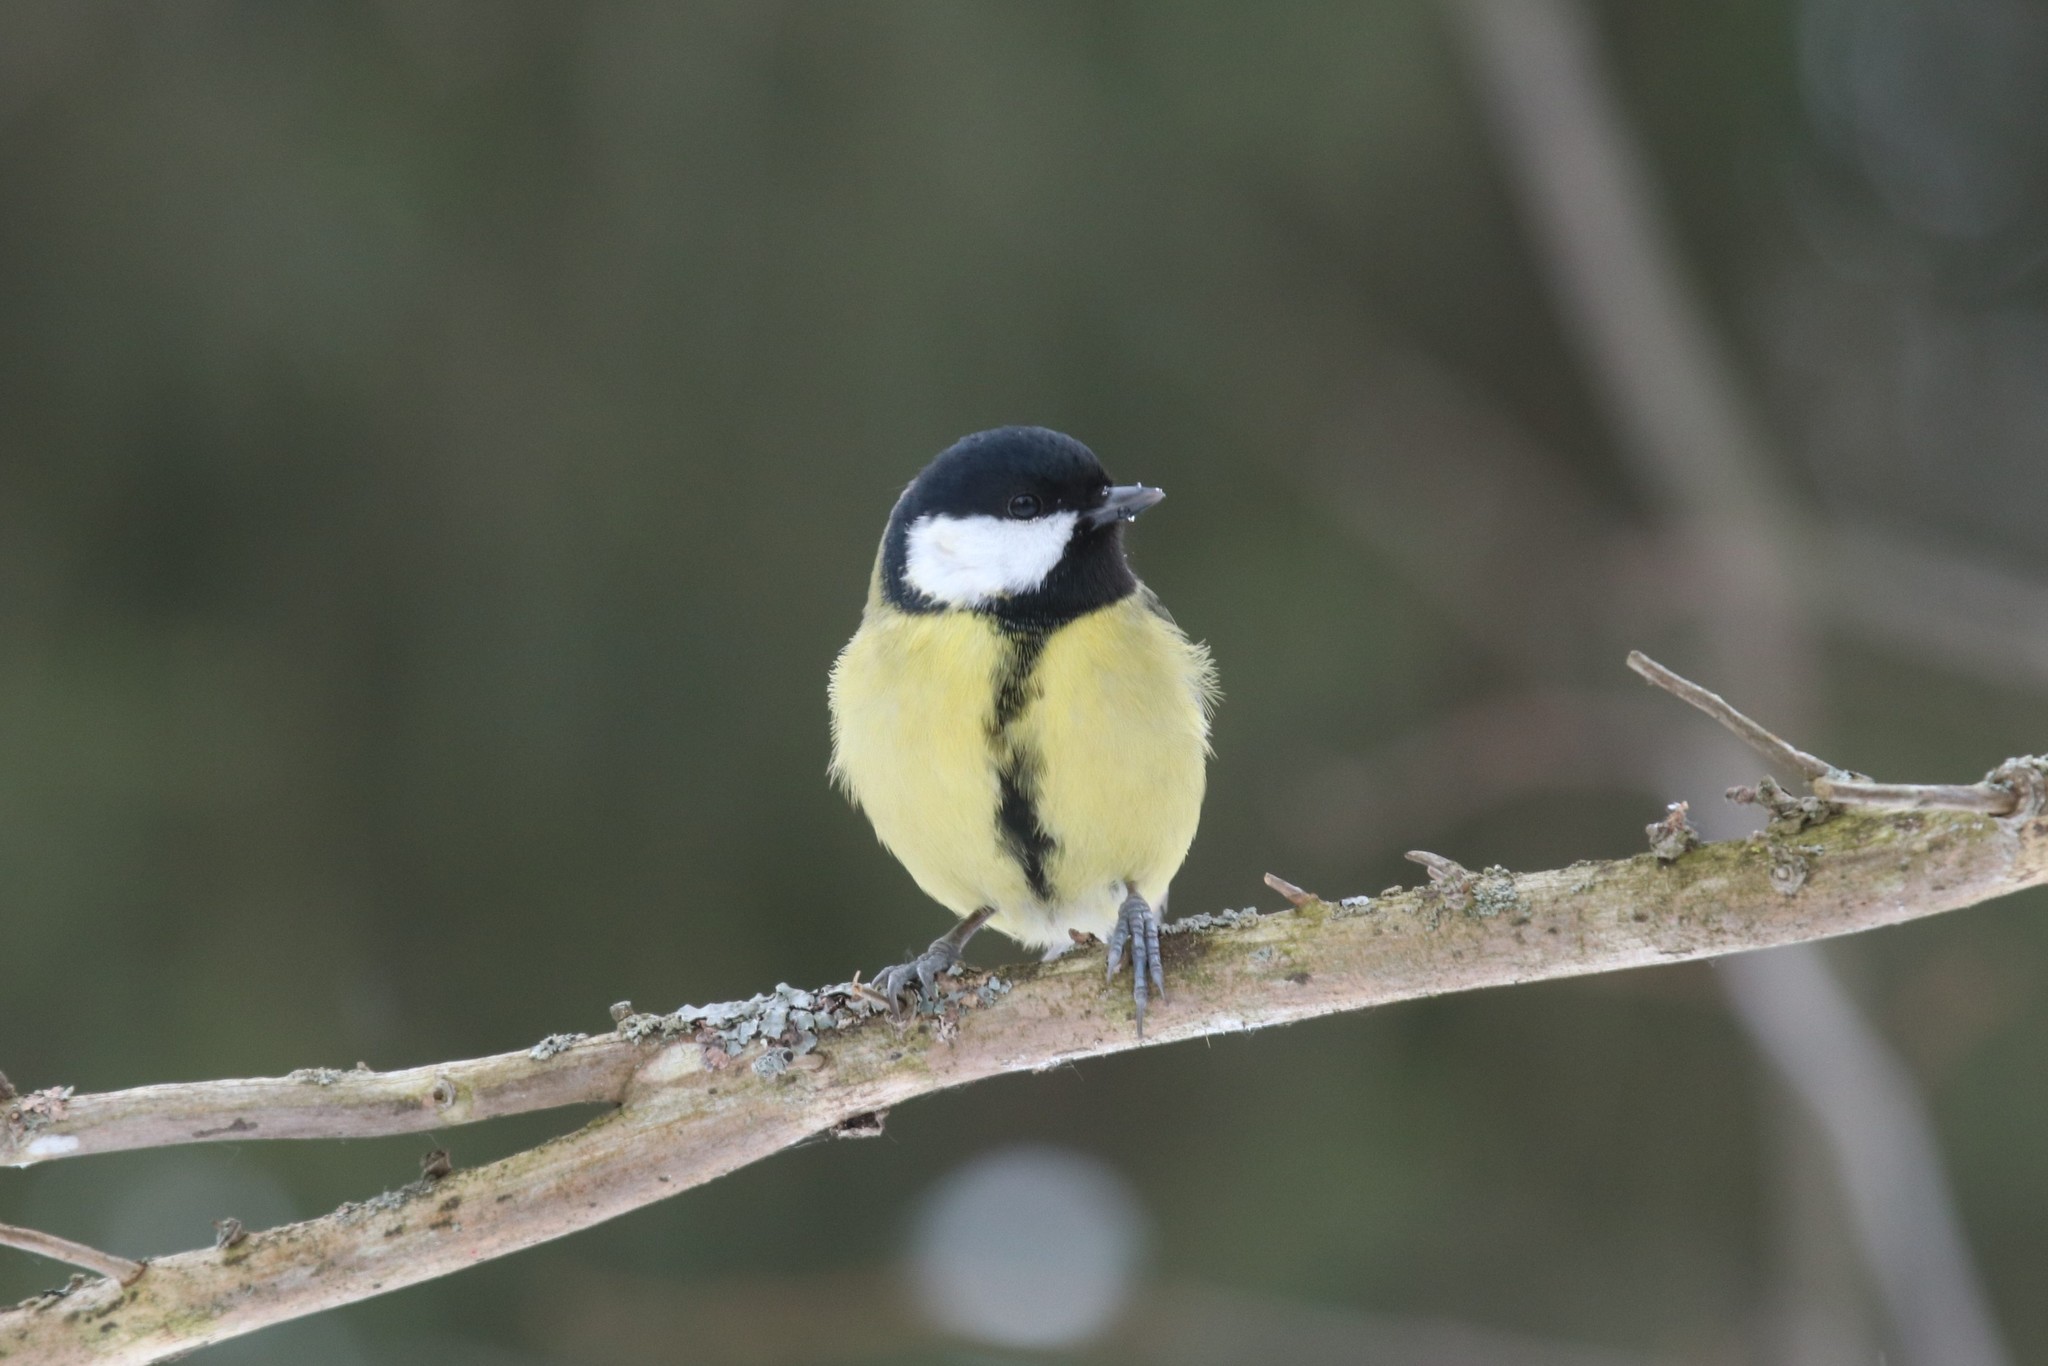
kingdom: Animalia
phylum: Chordata
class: Aves
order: Passeriformes
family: Paridae
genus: Parus
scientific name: Parus major
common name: Great tit
